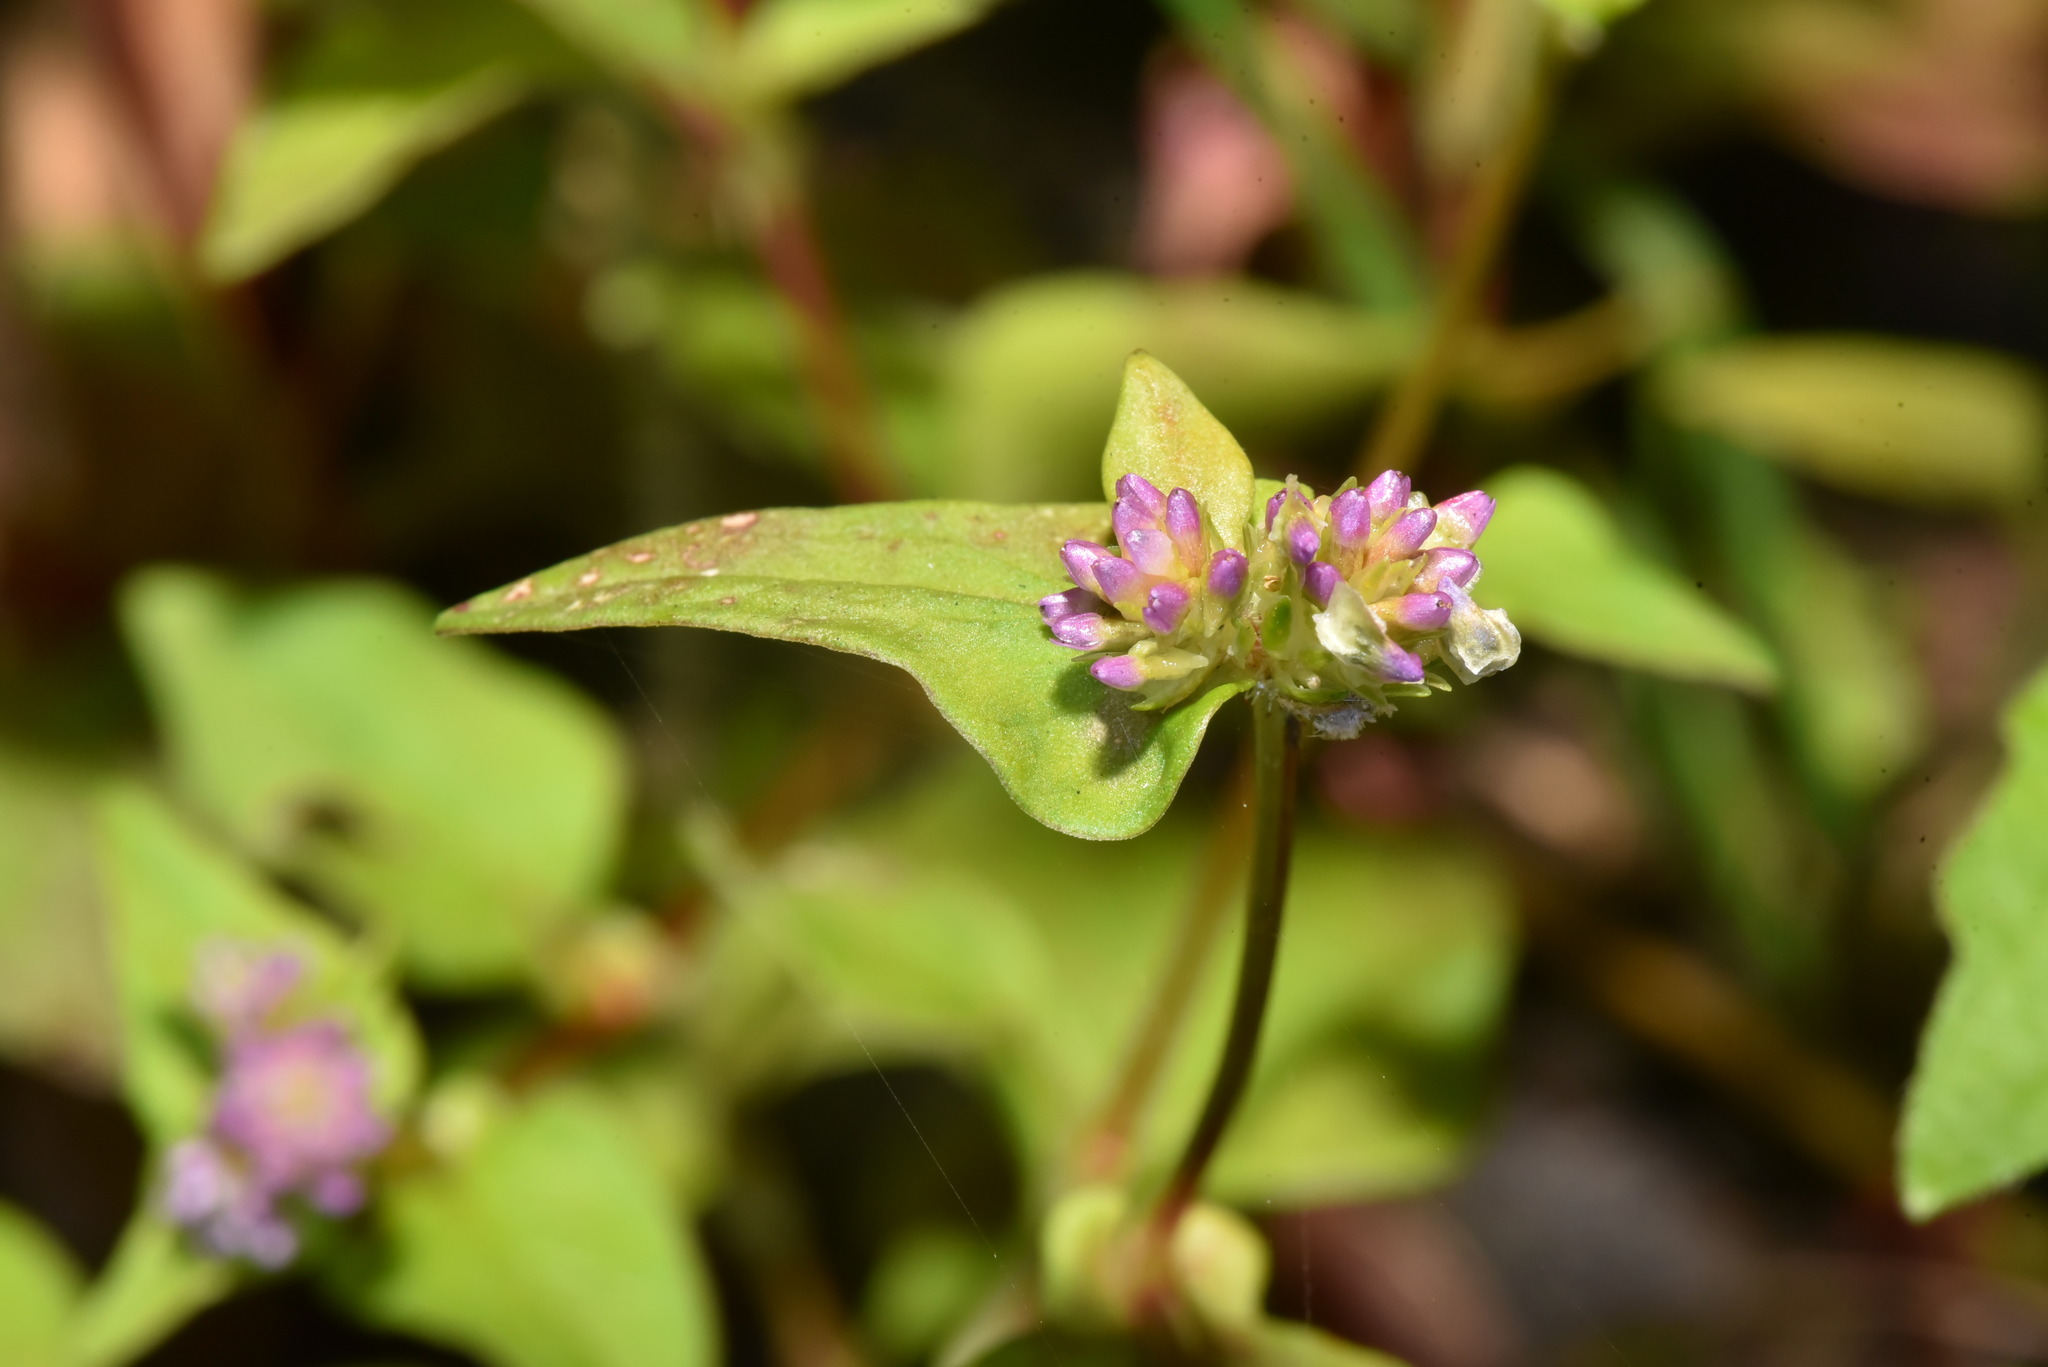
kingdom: Plantae
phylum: Tracheophyta
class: Magnoliopsida
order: Caryophyllales
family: Polygonaceae
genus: Persicaria
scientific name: Persicaria nepalensis
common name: Nepal persicaria
